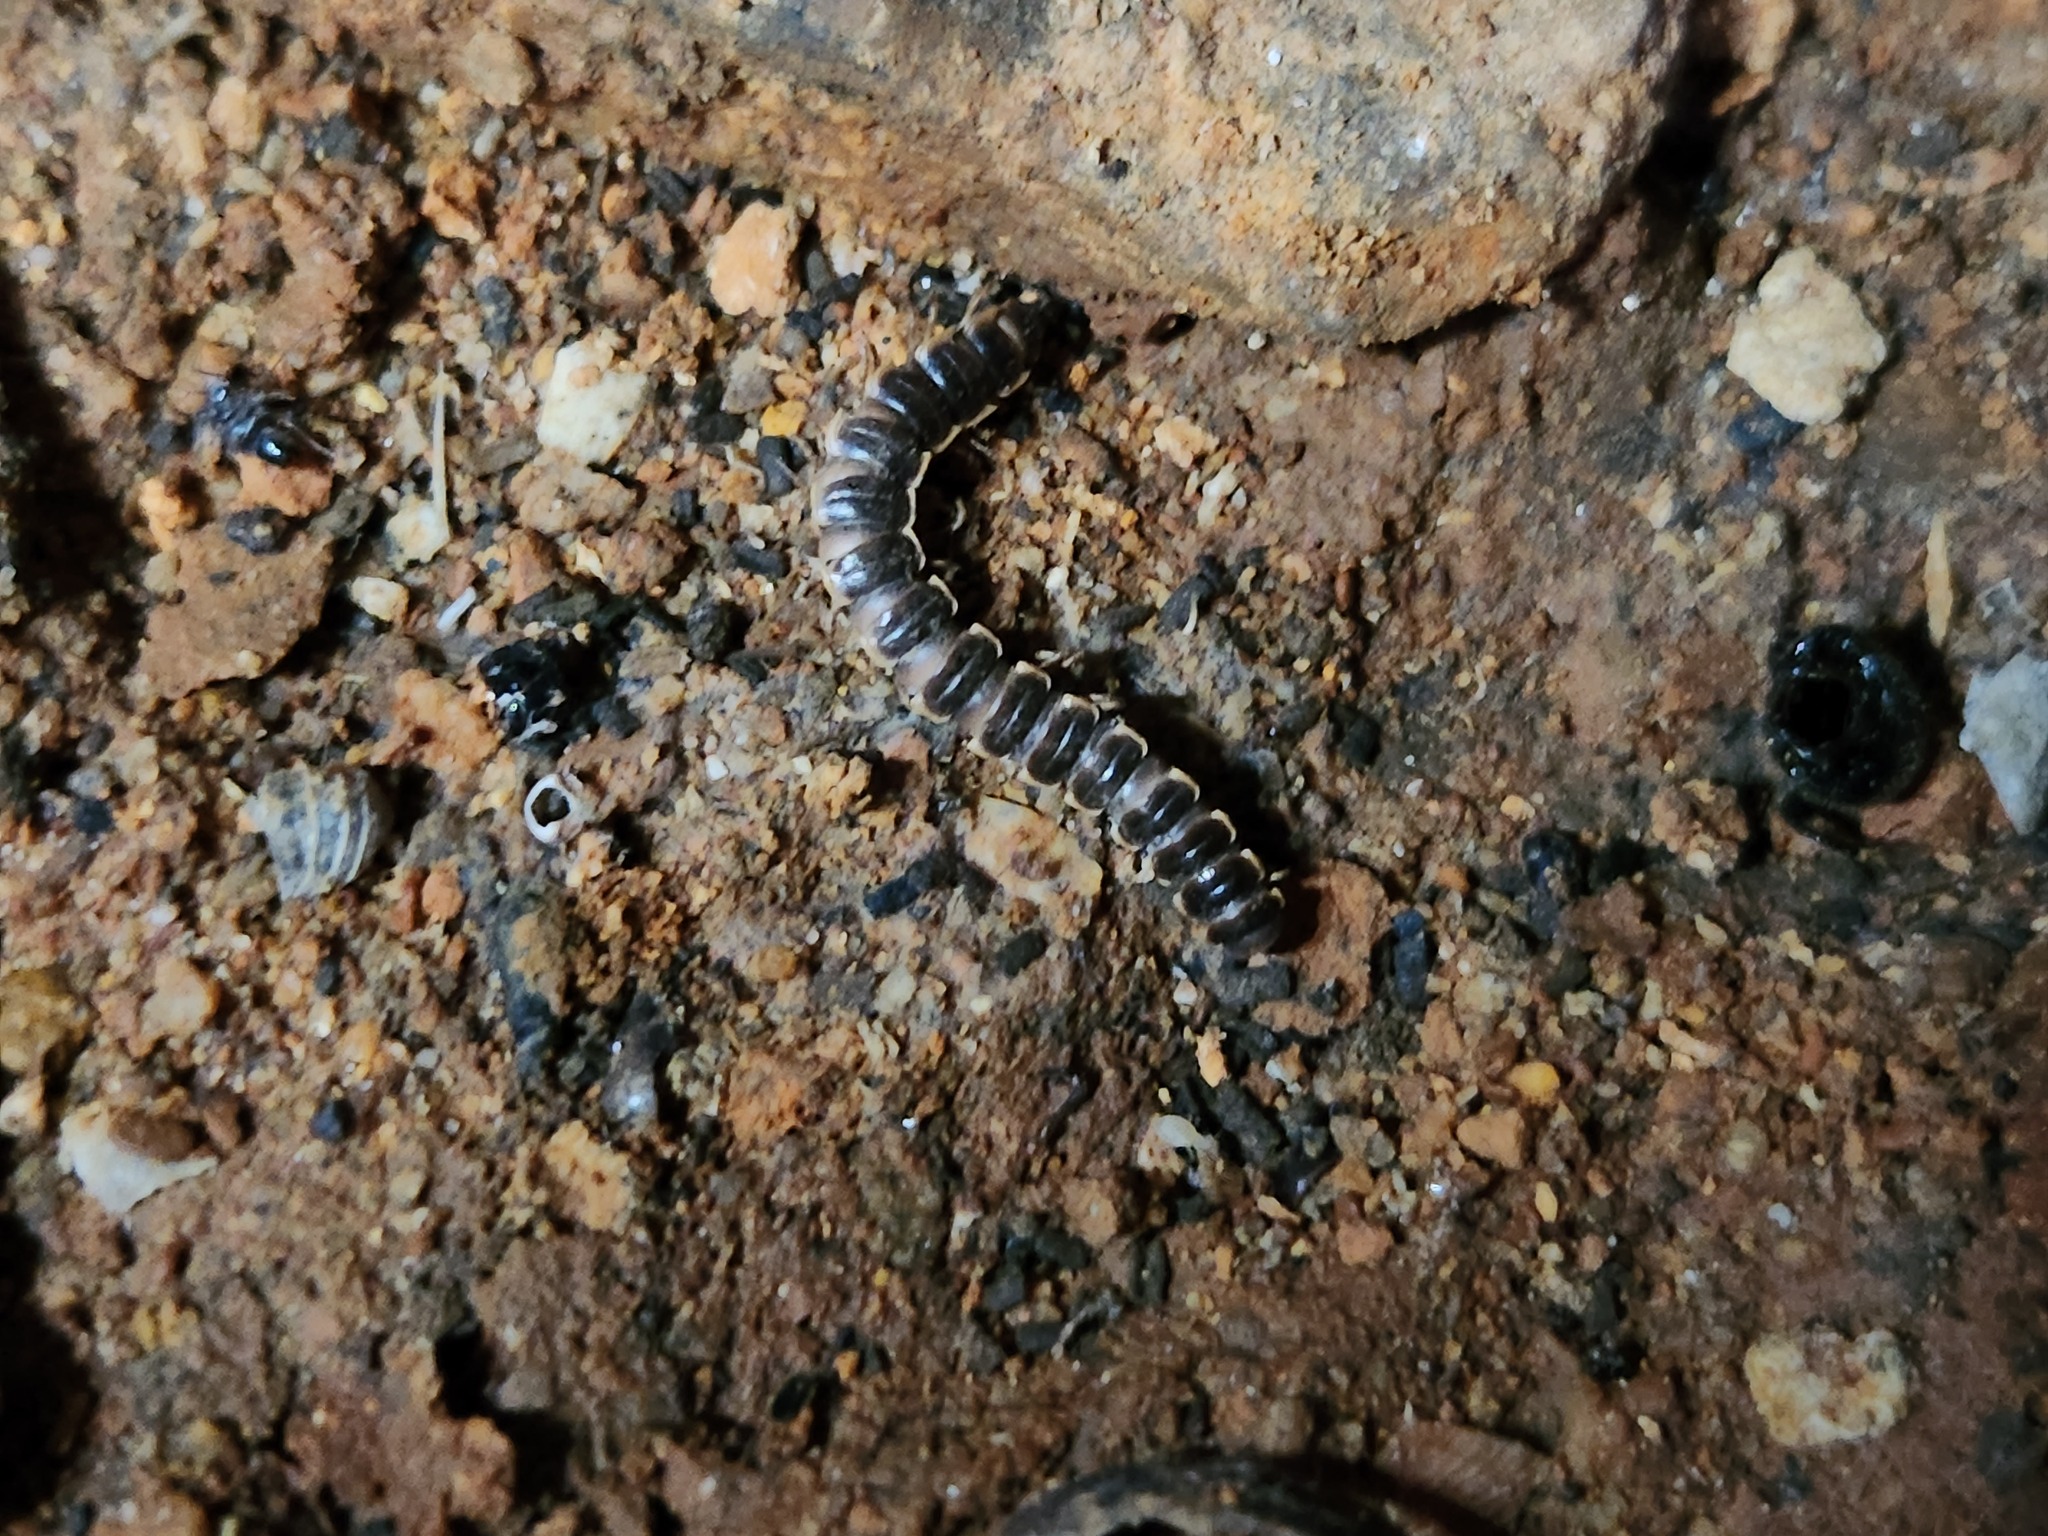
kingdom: Animalia
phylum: Arthropoda
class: Diplopoda
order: Polydesmida
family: Paradoxosomatidae
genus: Oxidus
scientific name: Oxidus gracilis
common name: Greenhouse millipede
